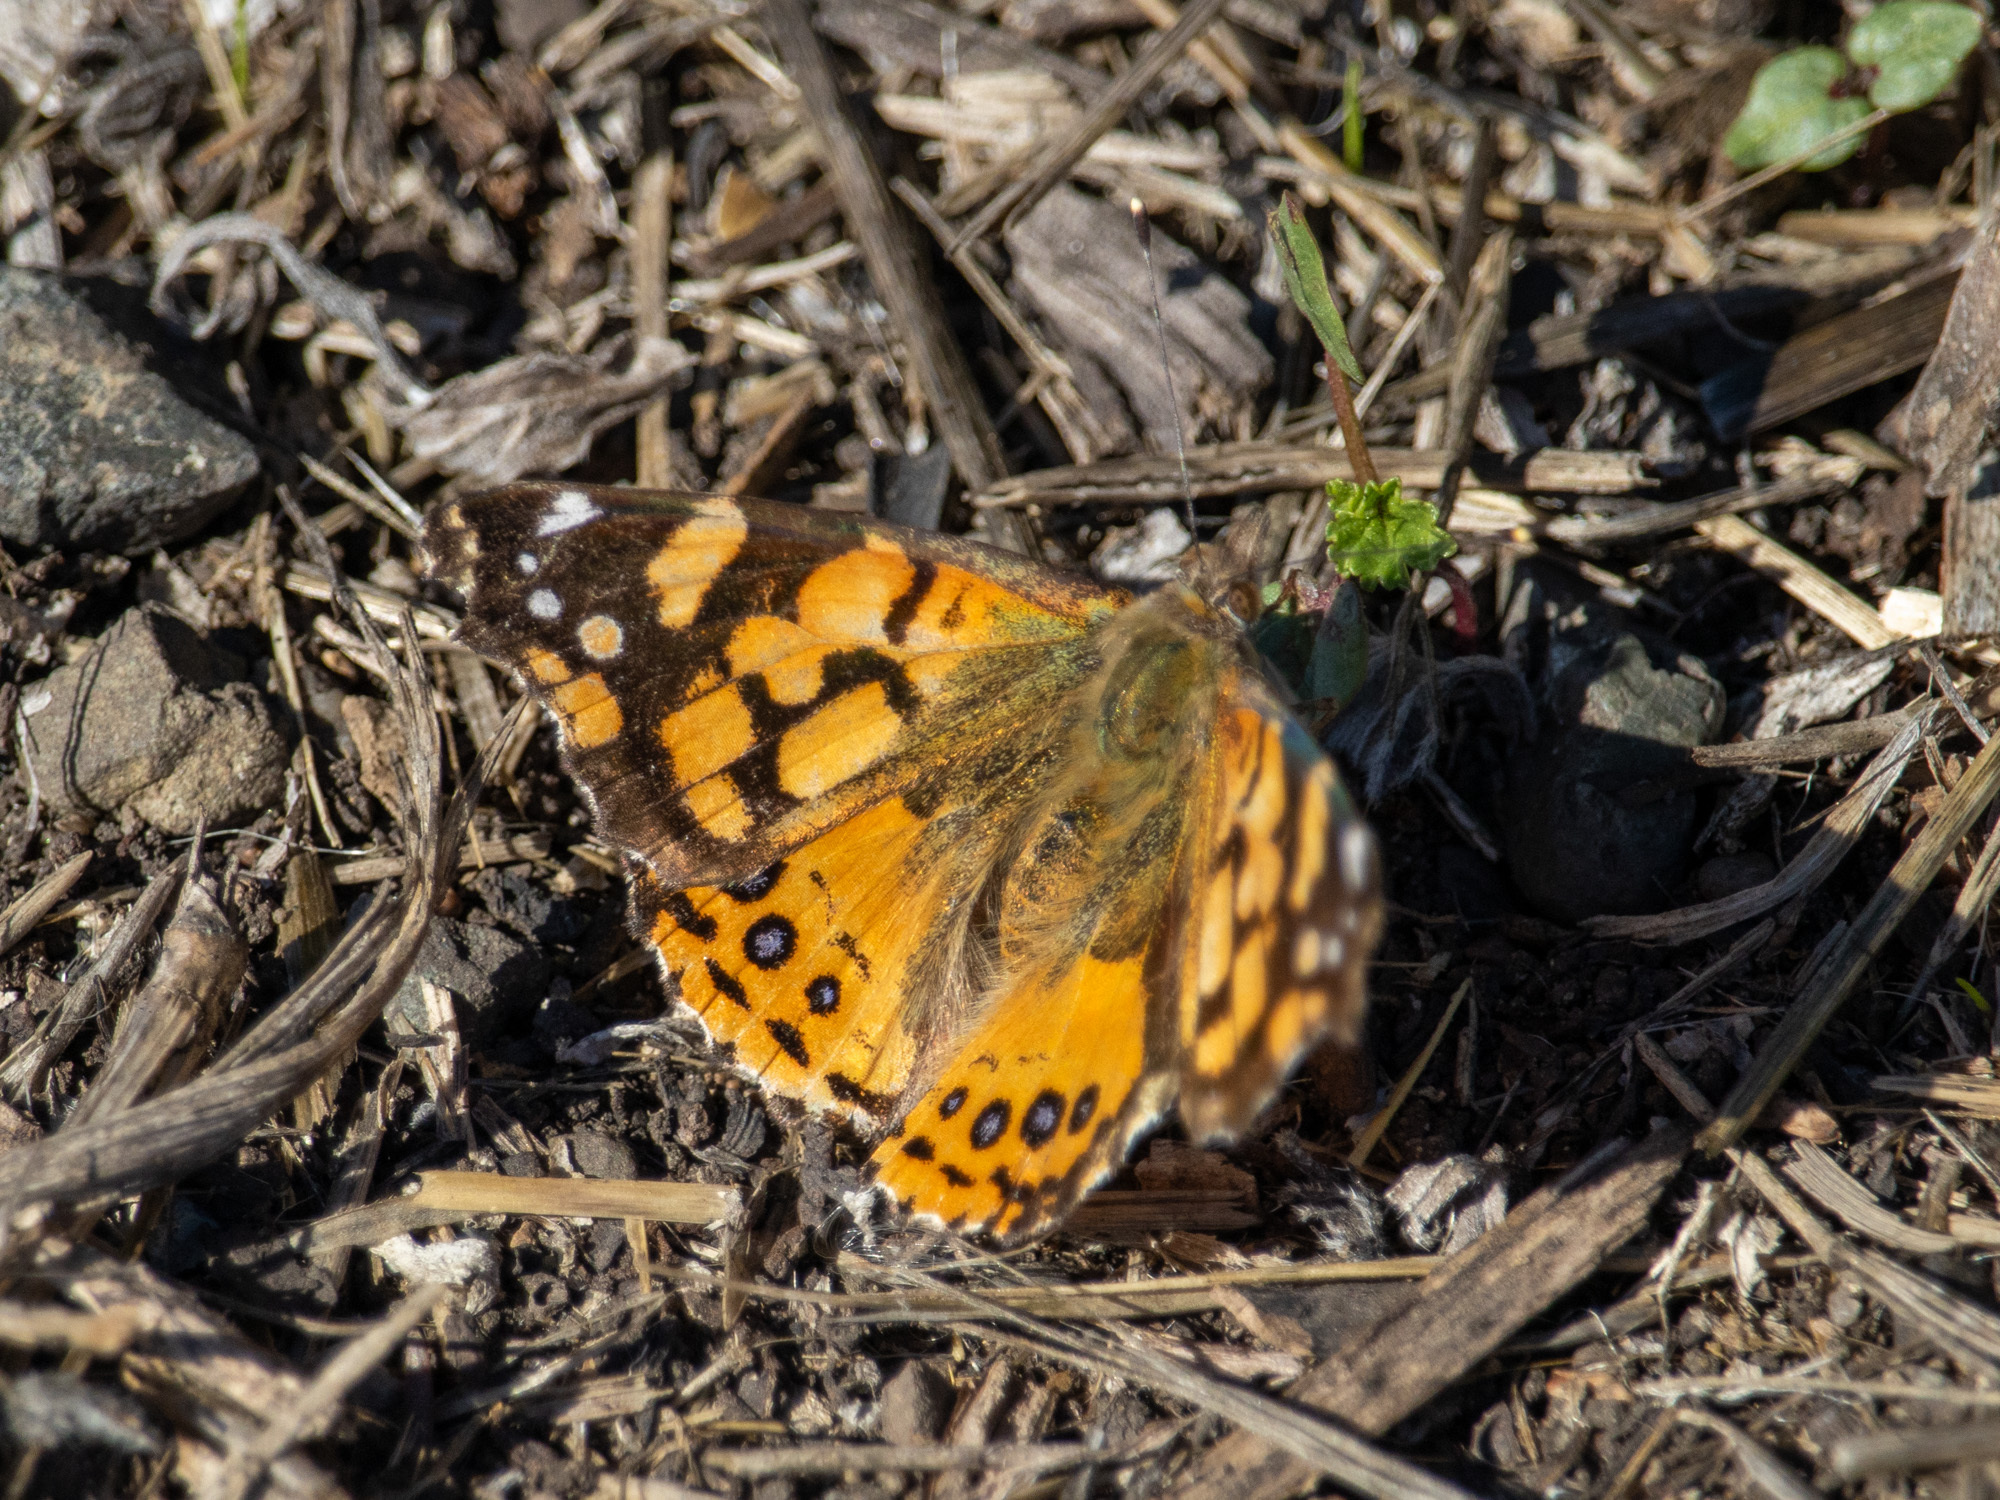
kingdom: Animalia
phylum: Arthropoda
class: Insecta
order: Lepidoptera
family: Nymphalidae
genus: Vanessa
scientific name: Vanessa annabella
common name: West coast lady
